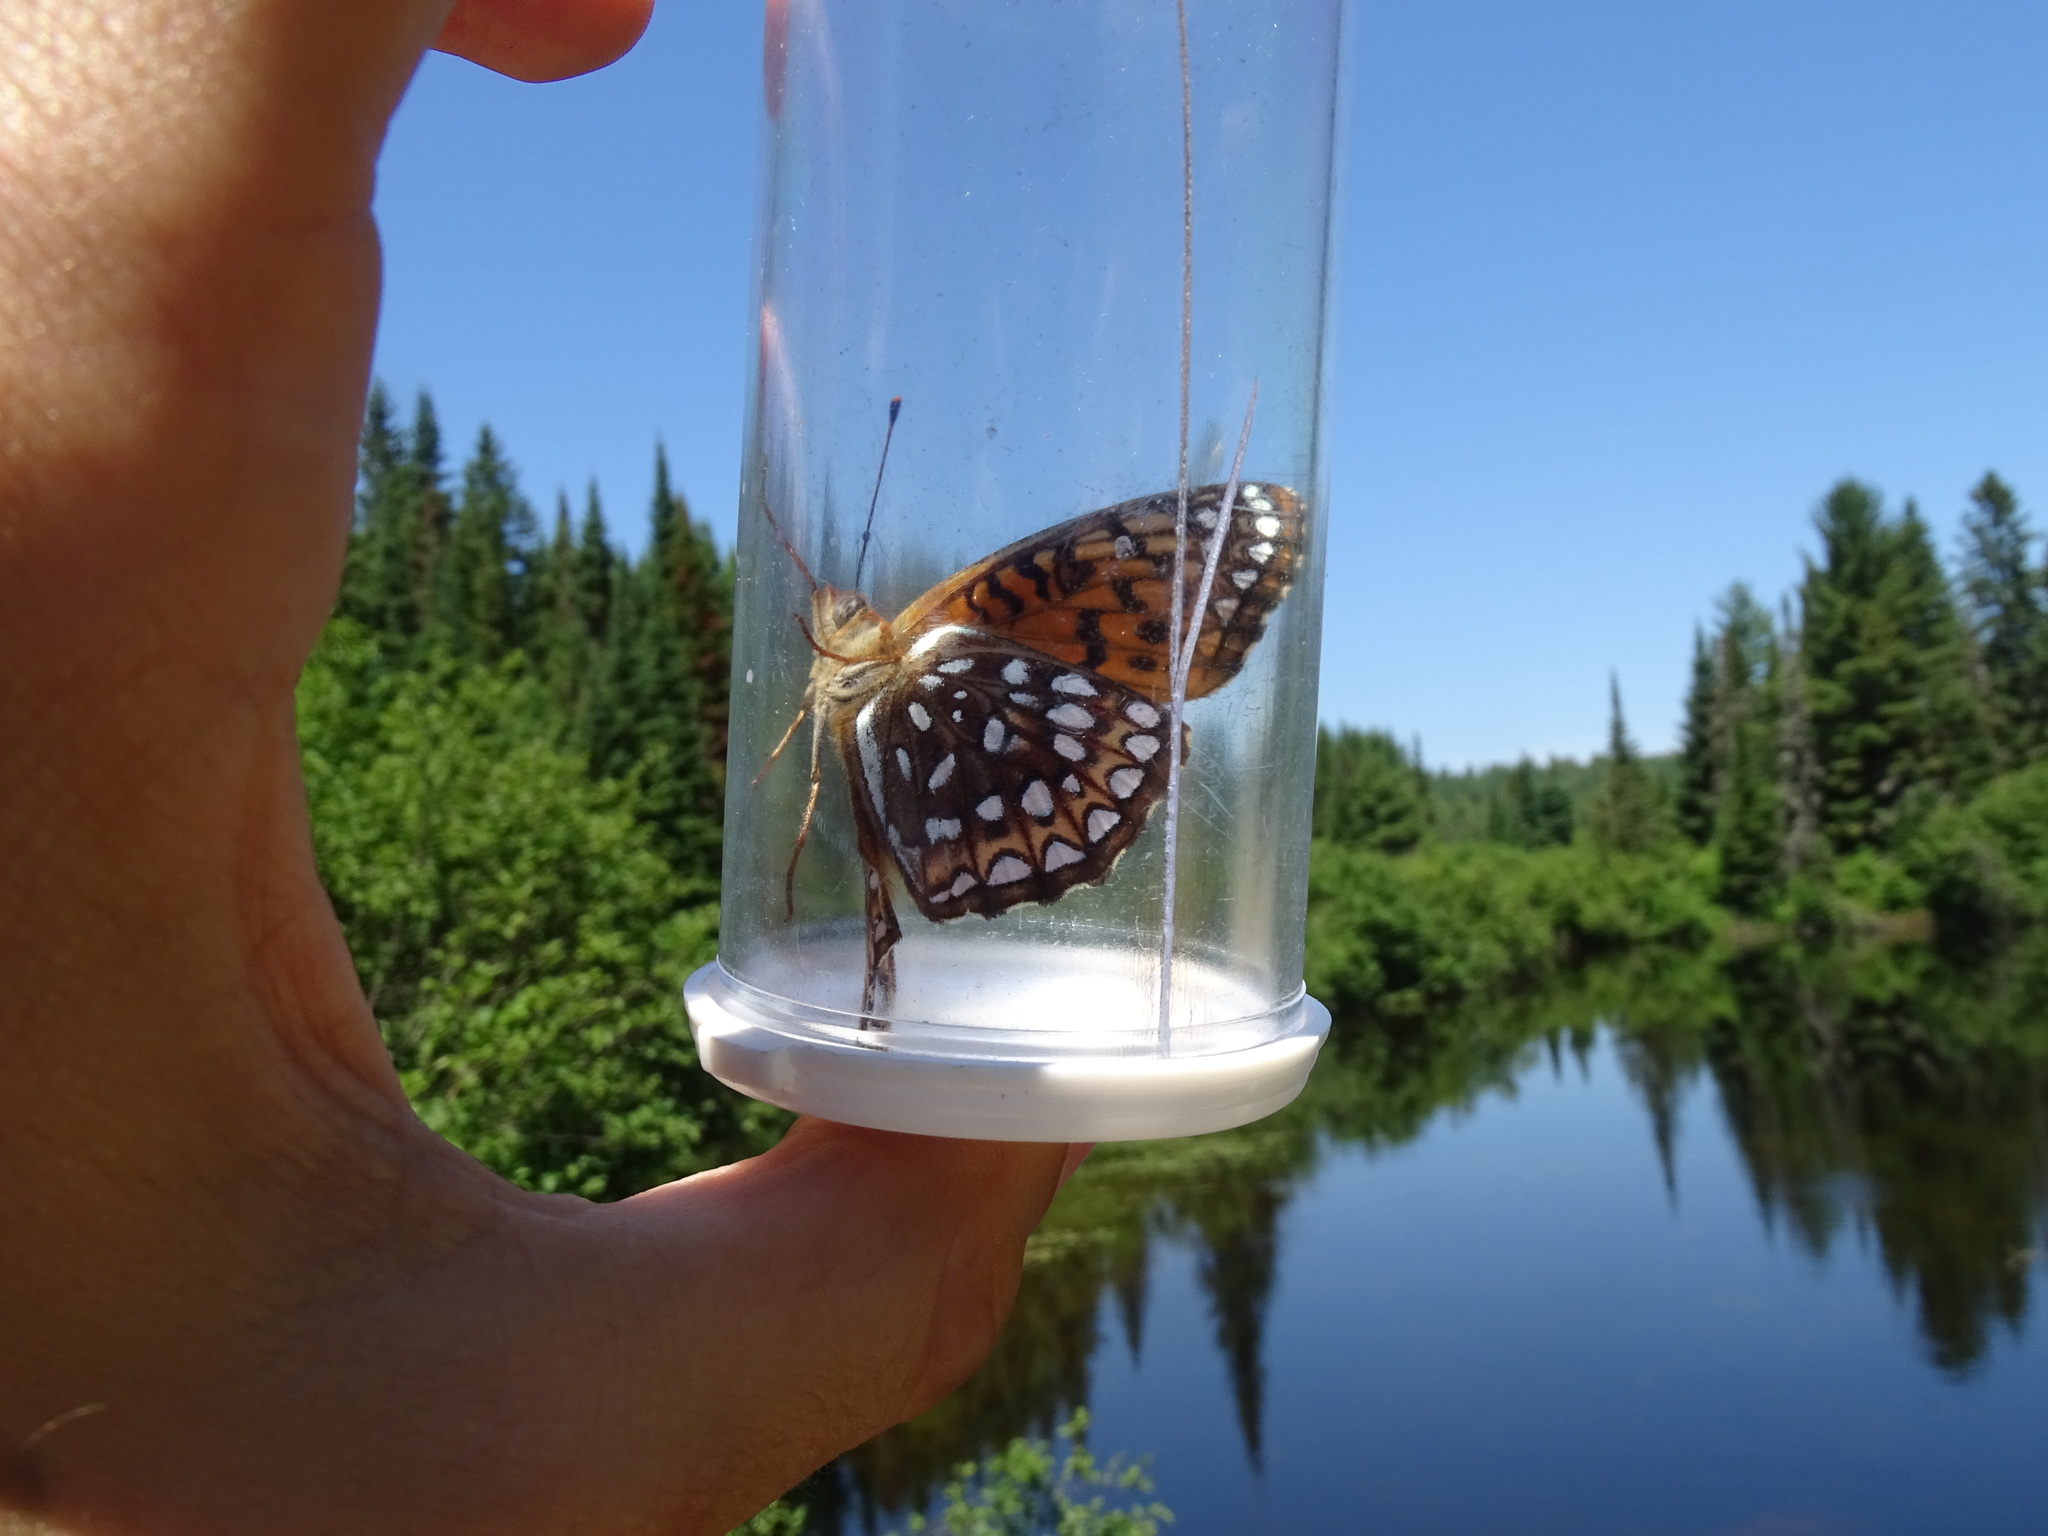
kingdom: Animalia
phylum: Arthropoda
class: Insecta
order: Lepidoptera
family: Nymphalidae
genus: Speyeria
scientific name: Speyeria atlantis
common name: Atlantis fritillary
